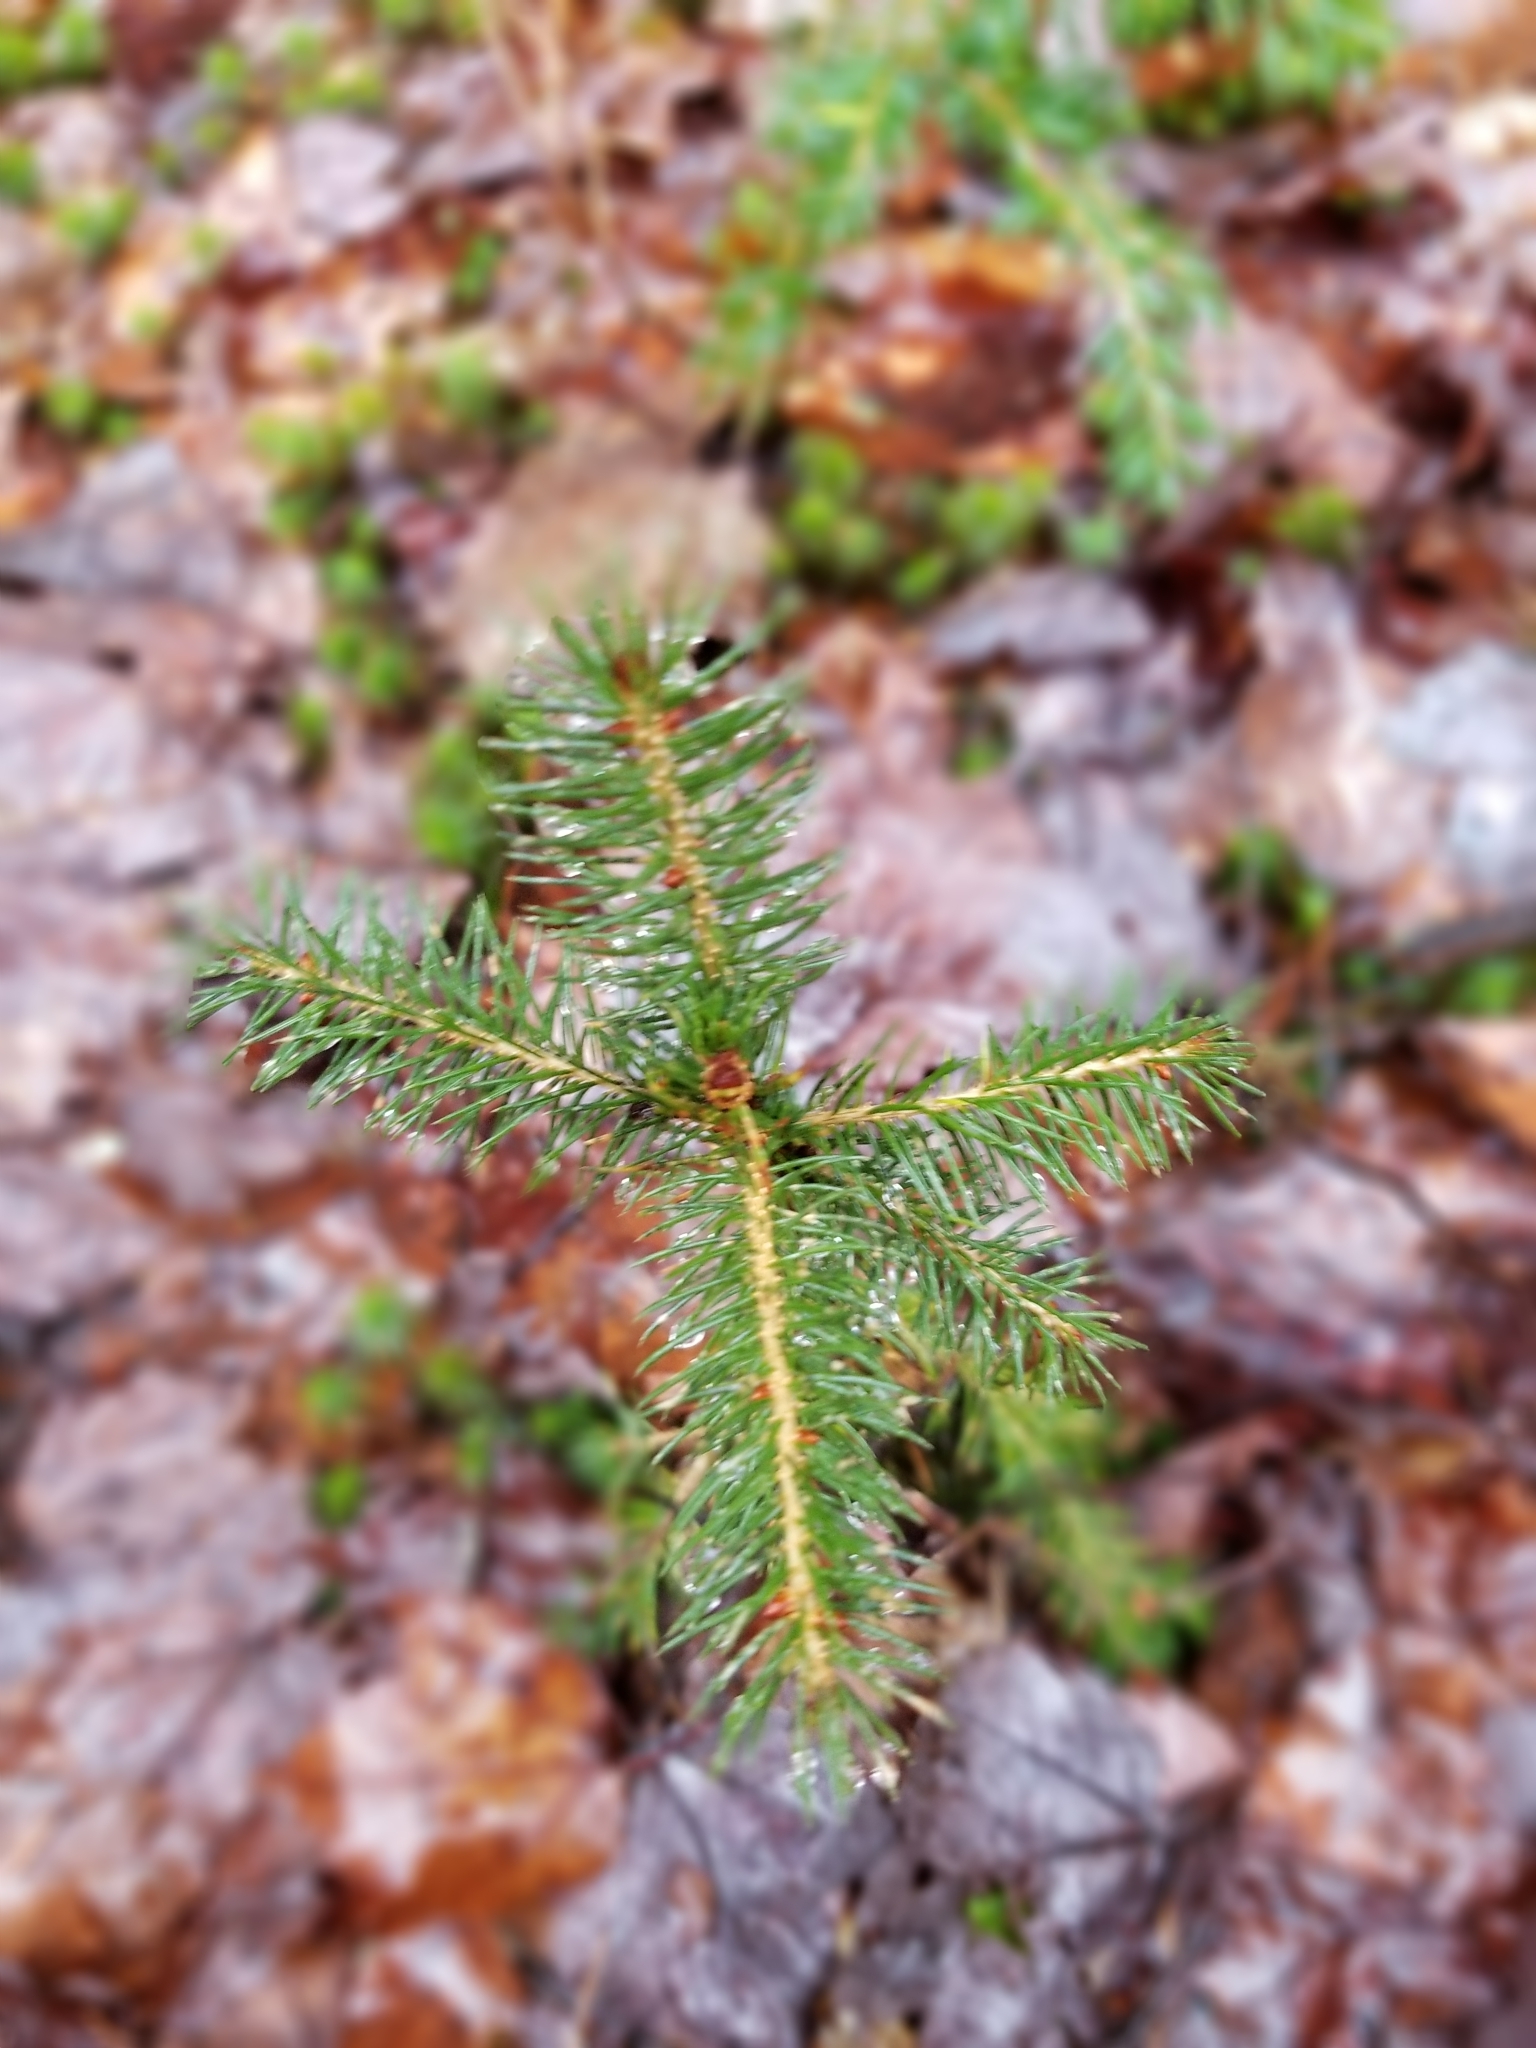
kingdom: Plantae
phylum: Tracheophyta
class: Pinopsida
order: Pinales
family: Pinaceae
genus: Picea
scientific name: Picea rubens
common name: Red spruce
